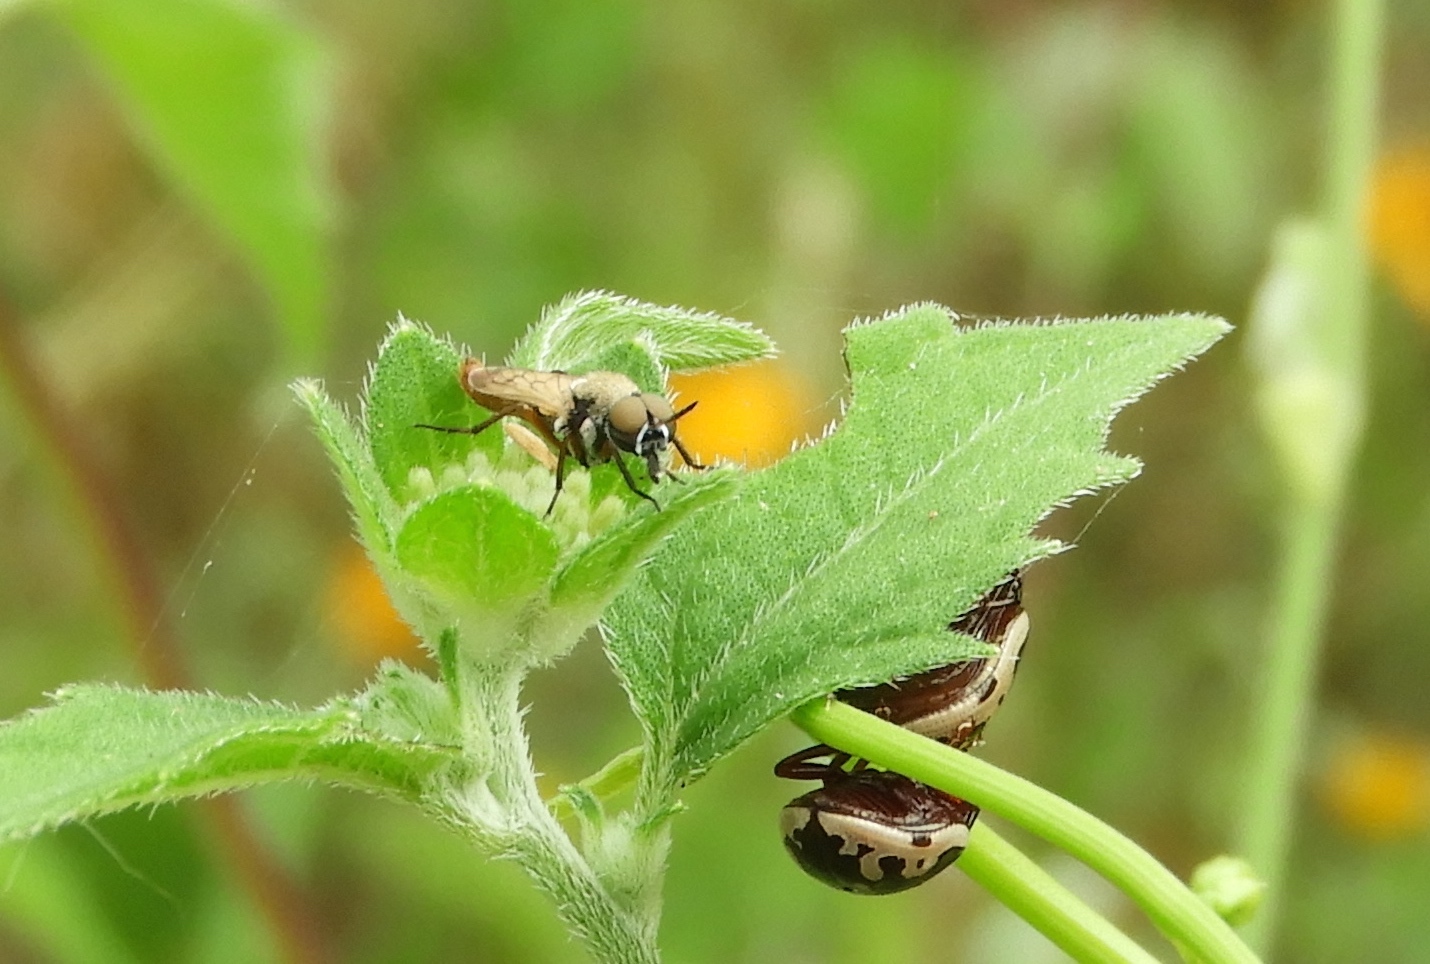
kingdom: Animalia
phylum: Arthropoda
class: Insecta
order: Diptera
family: Therevidae
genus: Chromolepida
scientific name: Chromolepida
